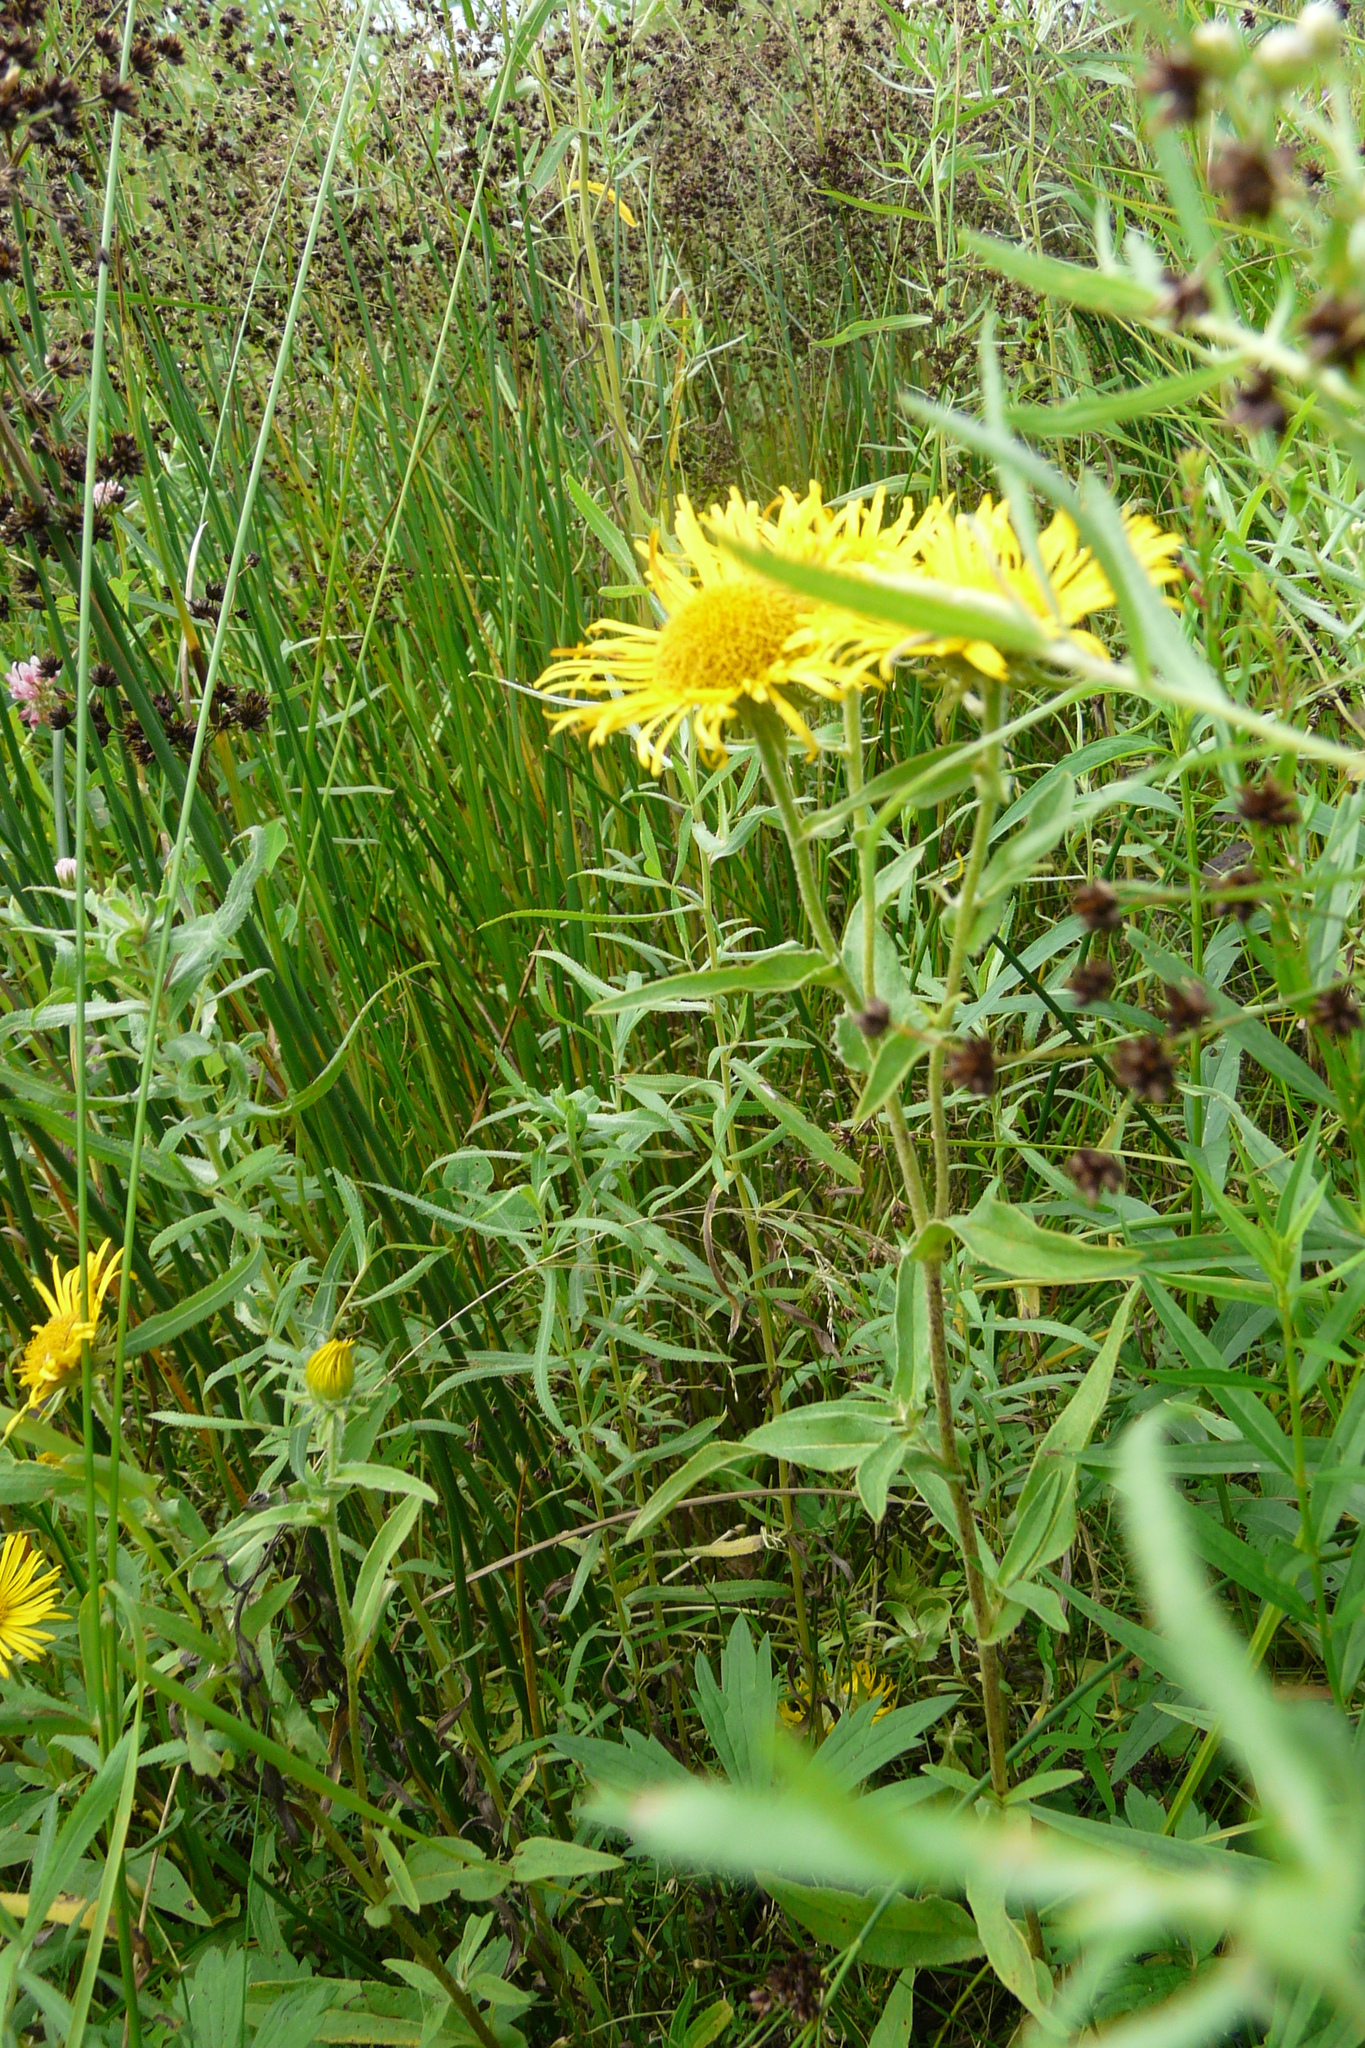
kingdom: Plantae
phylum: Tracheophyta
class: Magnoliopsida
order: Asterales
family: Asteraceae
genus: Pentanema
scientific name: Pentanema britannicum
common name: British elecampane
